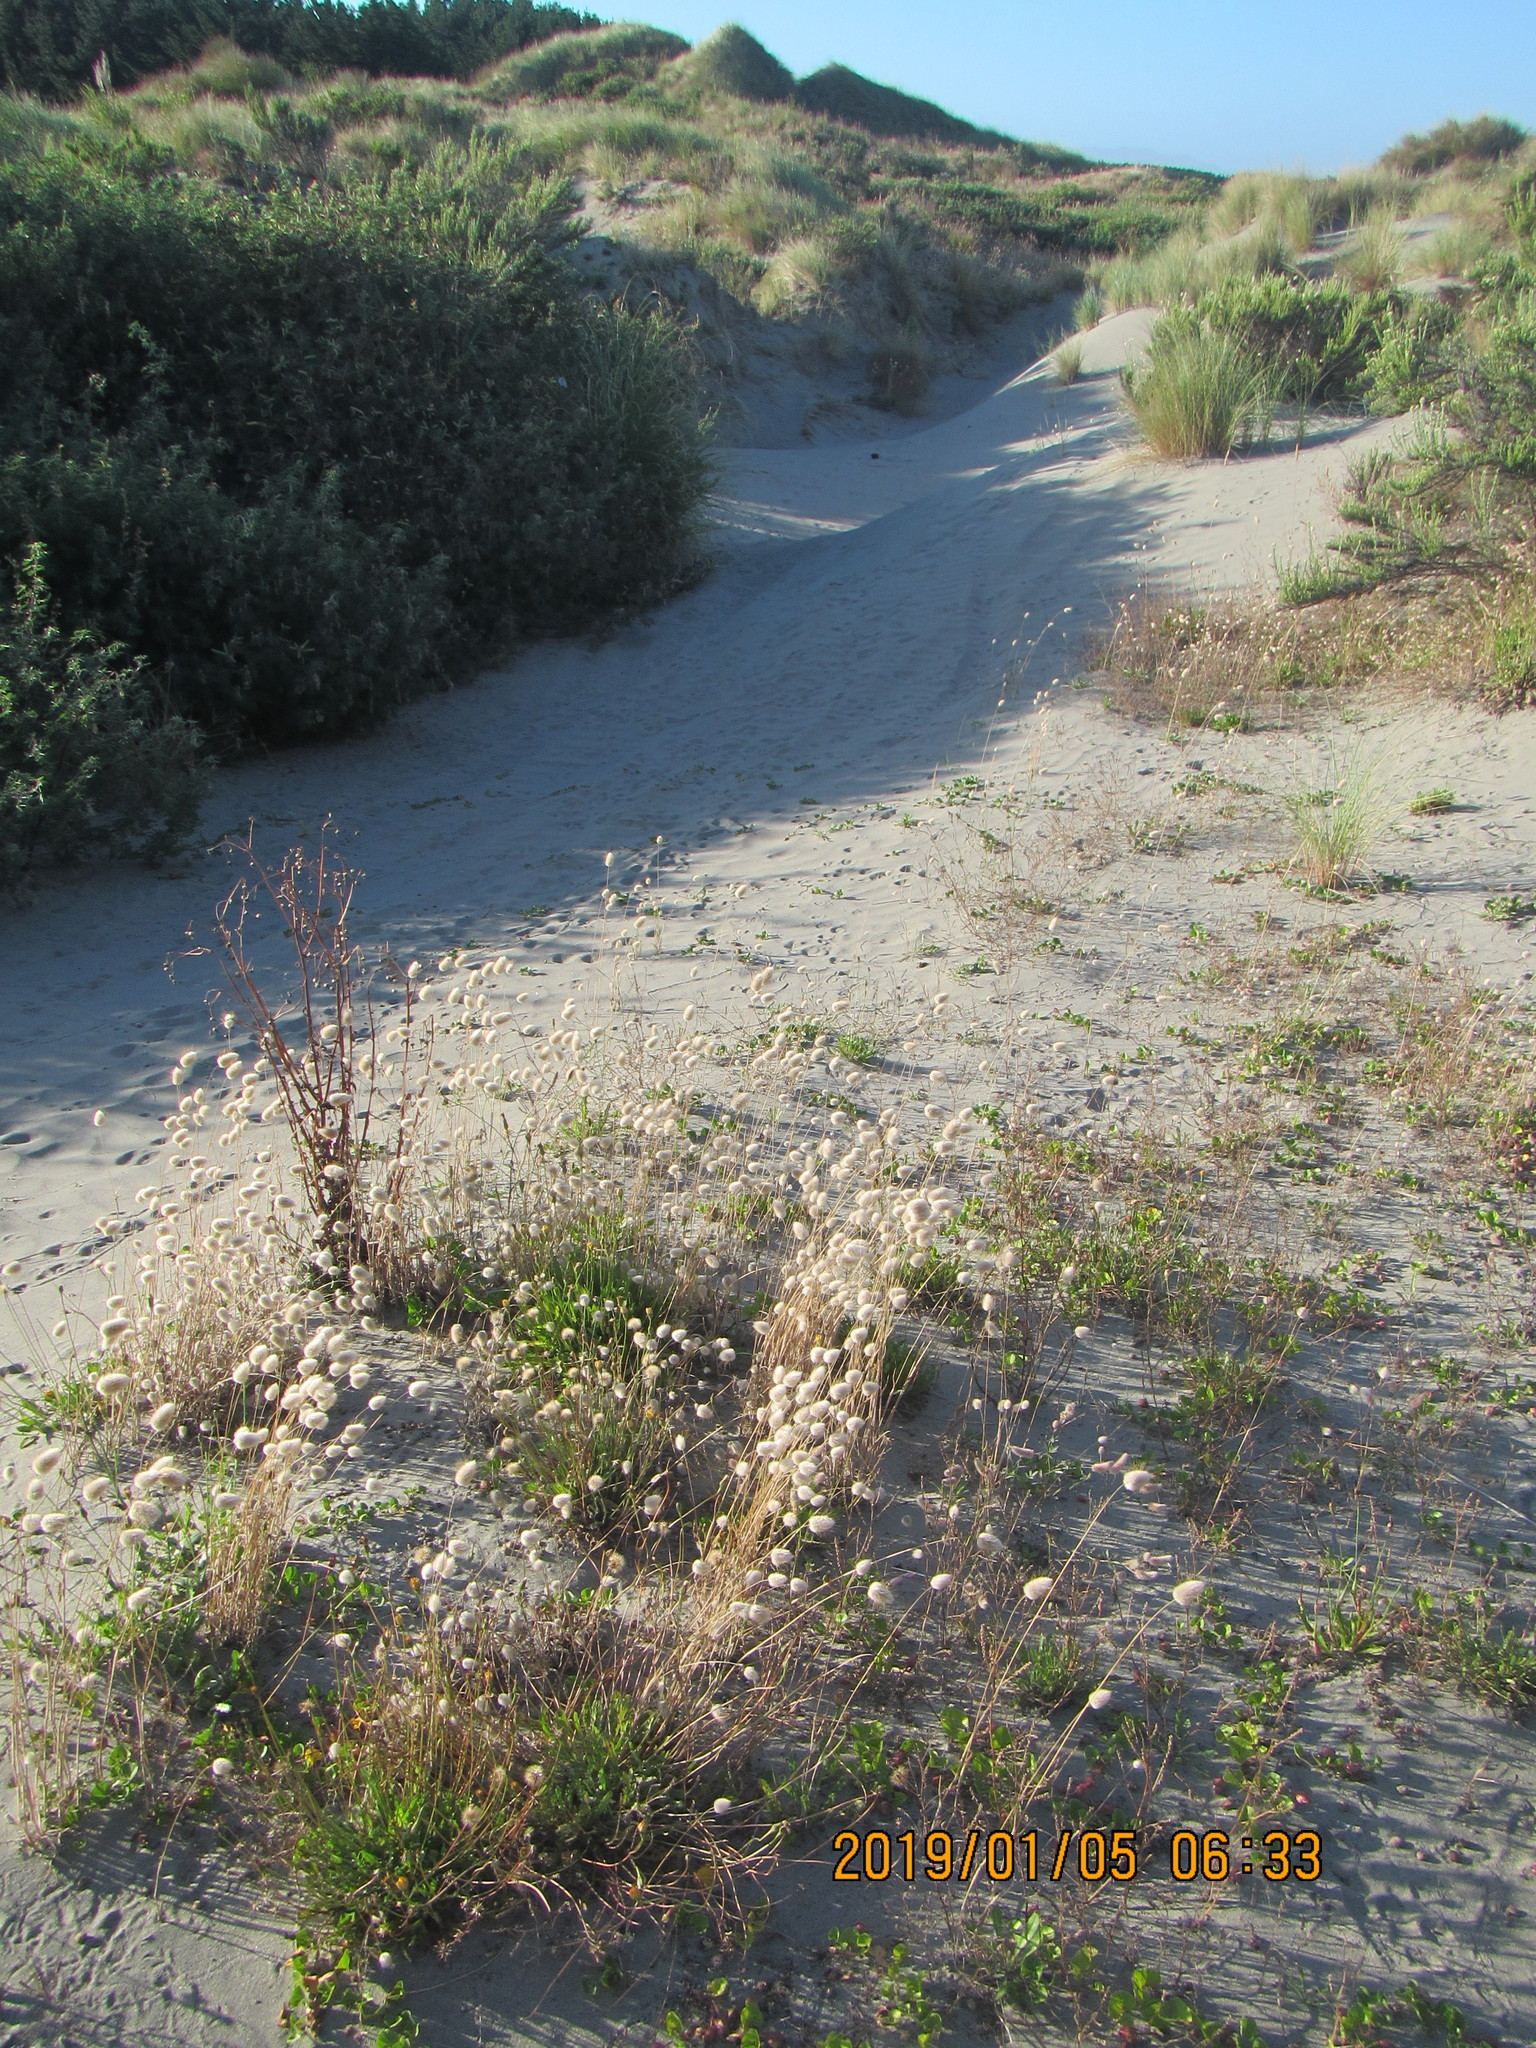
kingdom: Plantae
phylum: Tracheophyta
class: Liliopsida
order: Poales
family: Poaceae
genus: Lagurus
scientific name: Lagurus ovatus
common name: Hare's-tail
